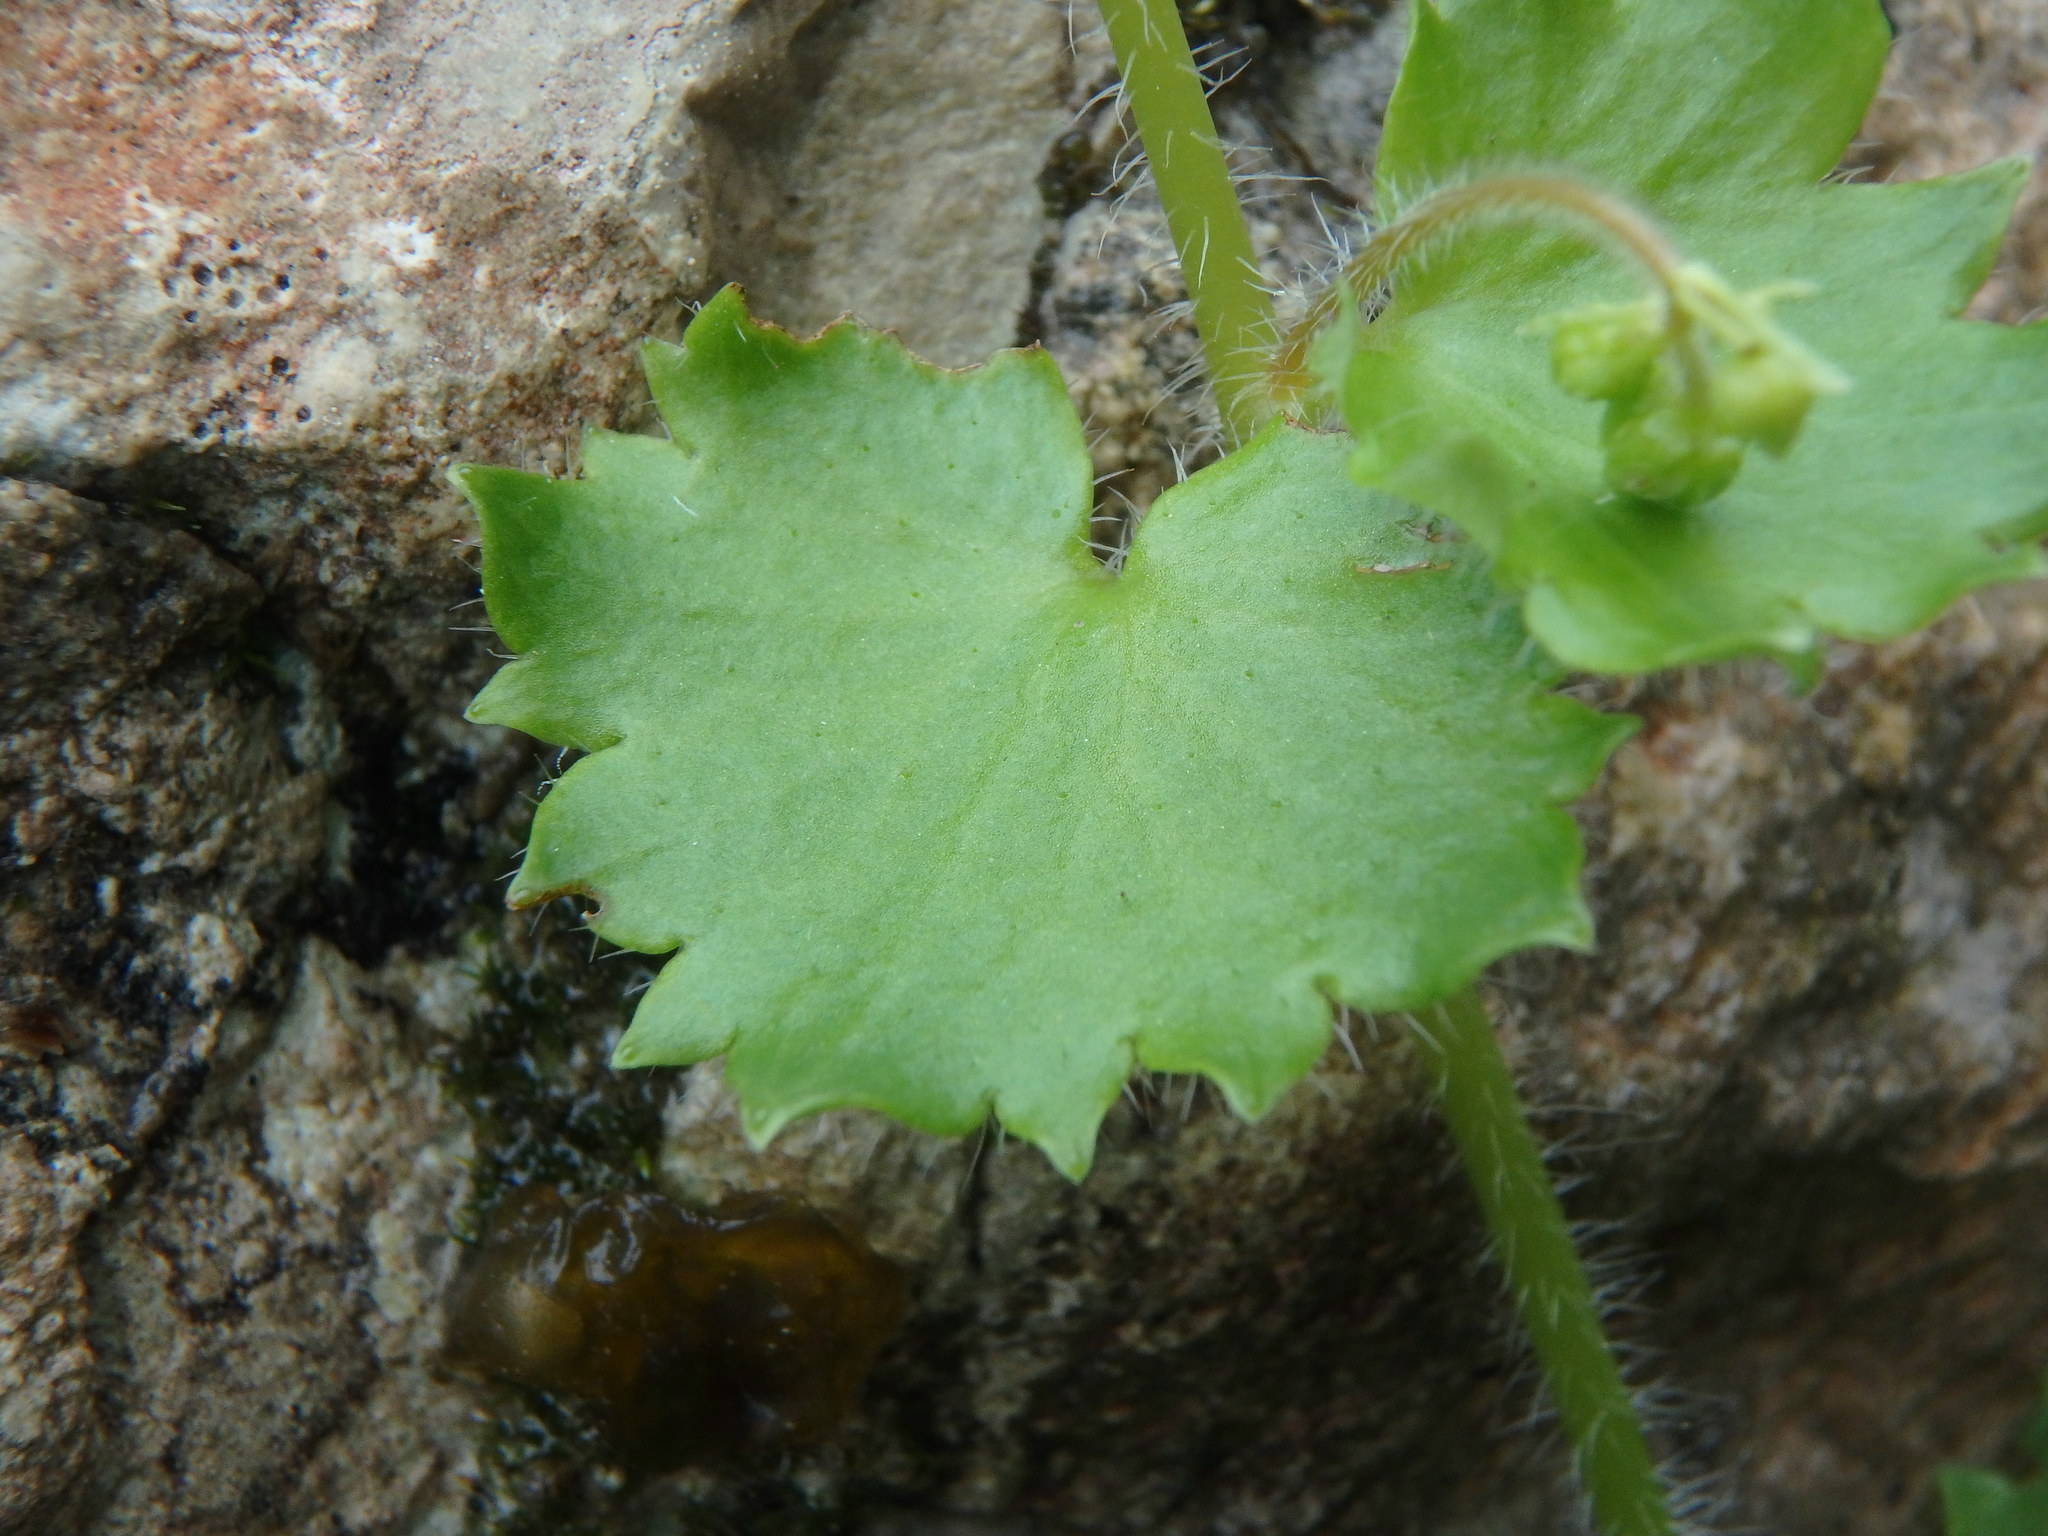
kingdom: Plantae
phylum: Tracheophyta
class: Magnoliopsida
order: Saxifragales
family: Saxifragaceae
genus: Saxifraga
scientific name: Saxifraga rotundifolia
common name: Round-leaved saxifrage
